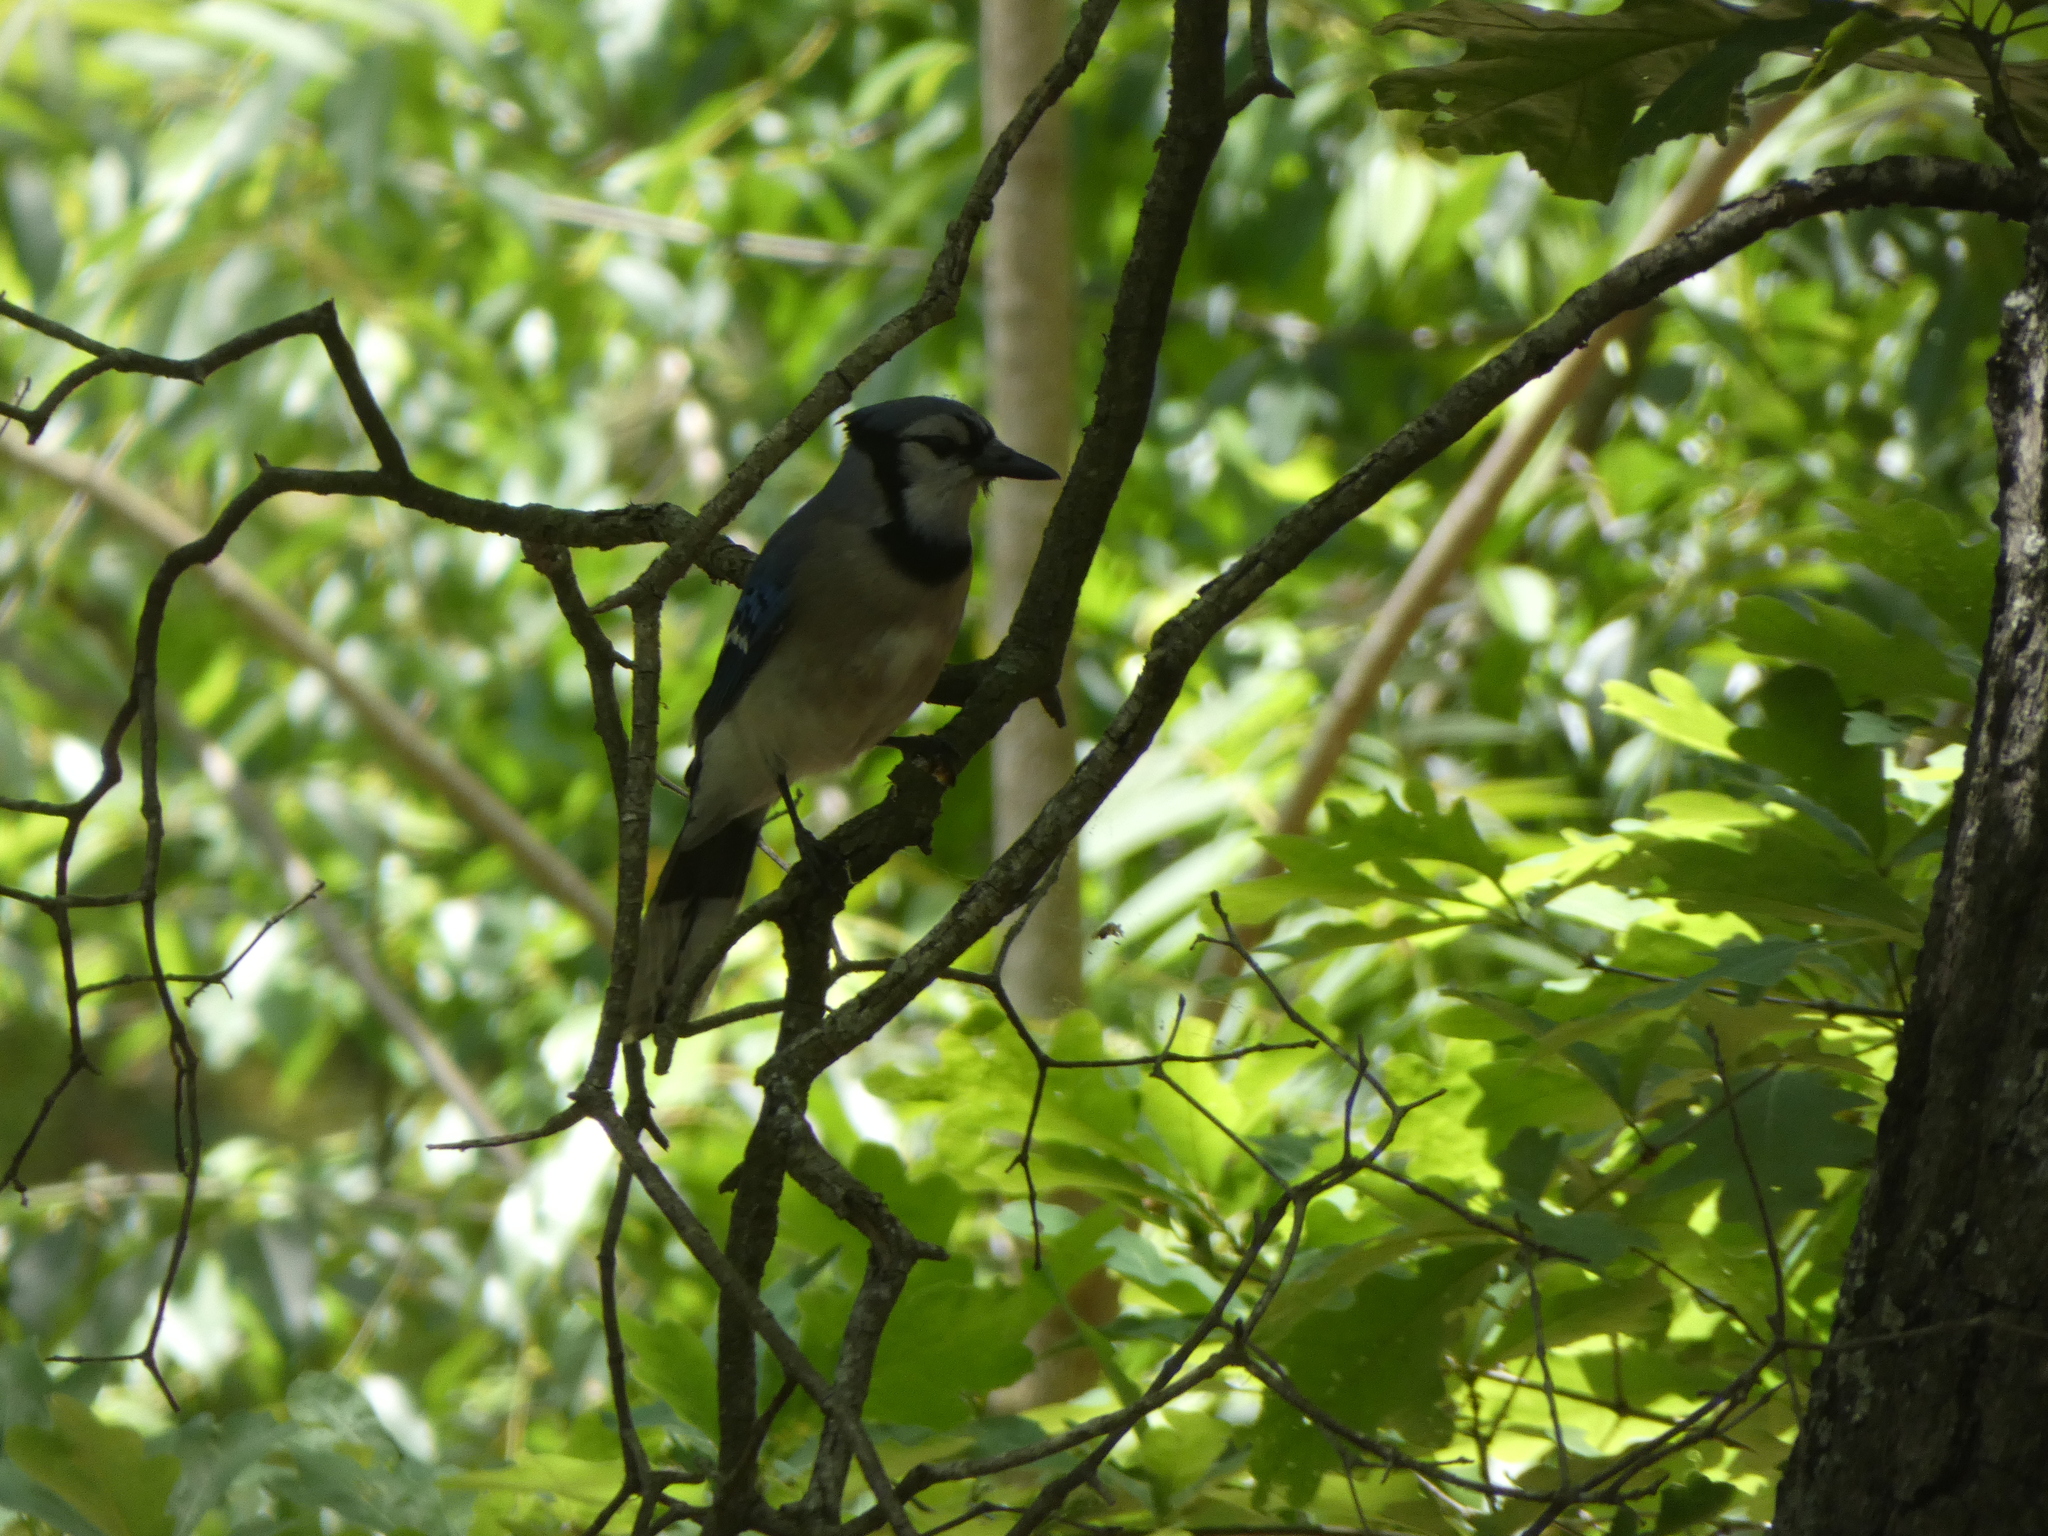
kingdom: Animalia
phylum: Chordata
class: Aves
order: Passeriformes
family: Corvidae
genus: Cyanocitta
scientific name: Cyanocitta cristata
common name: Blue jay
